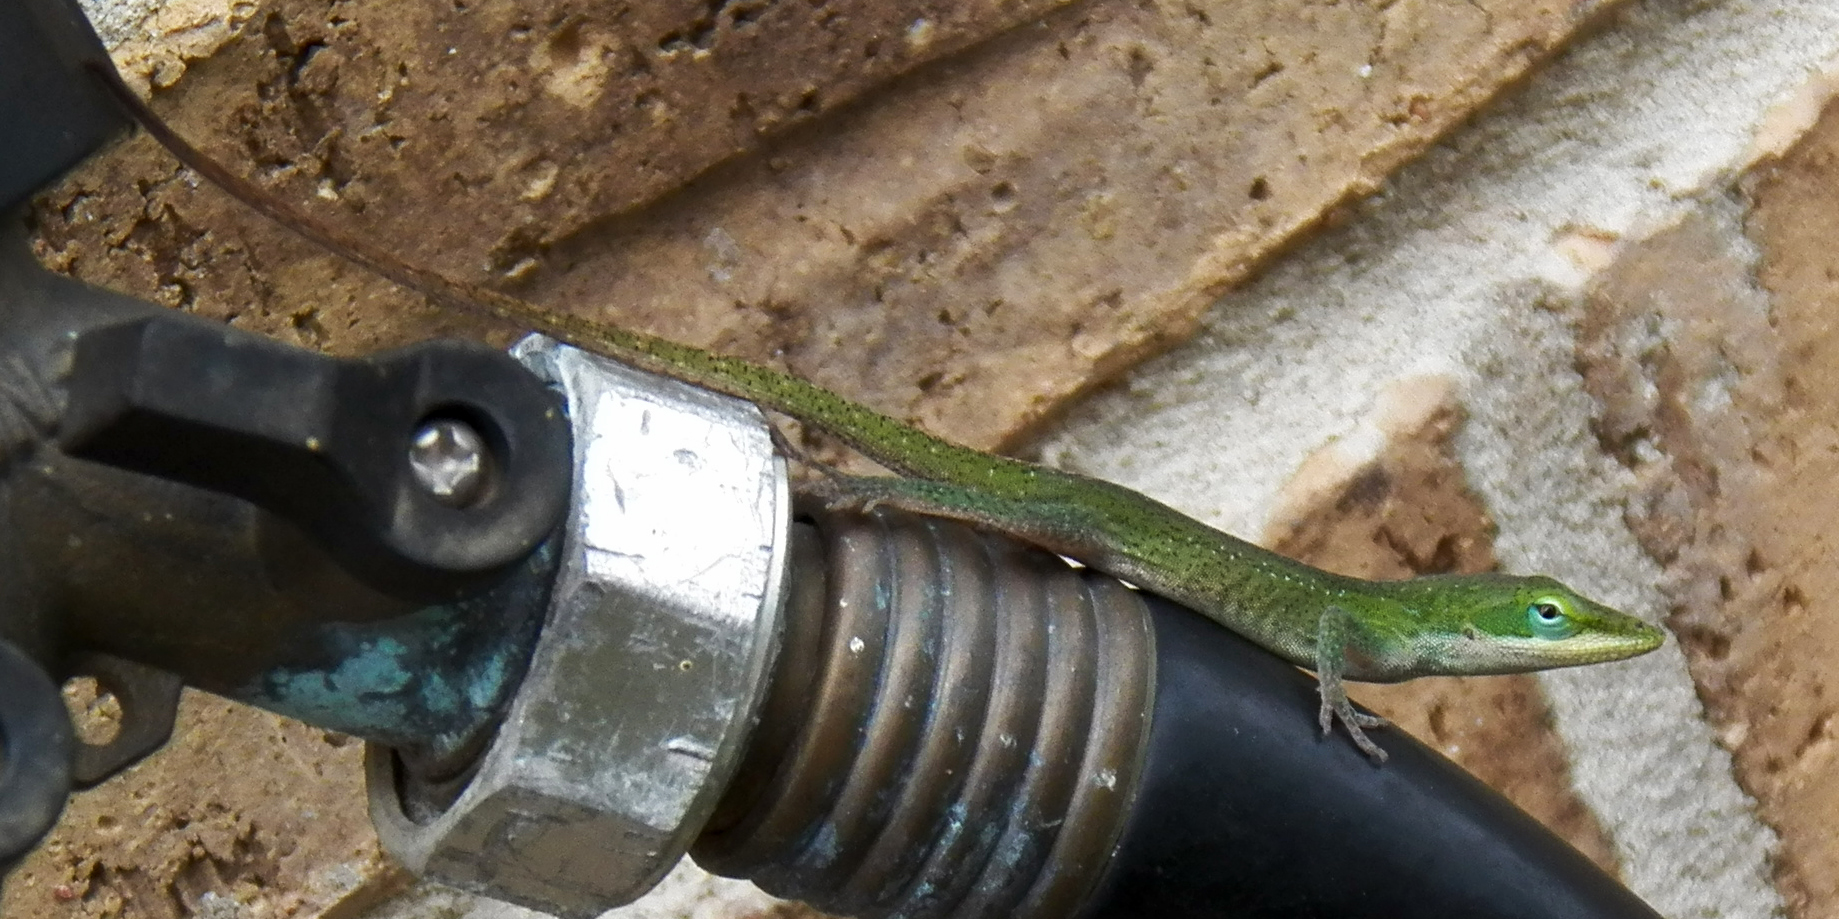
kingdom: Animalia
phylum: Chordata
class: Squamata
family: Dactyloidae
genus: Anolis
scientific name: Anolis carolinensis
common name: Green anole
